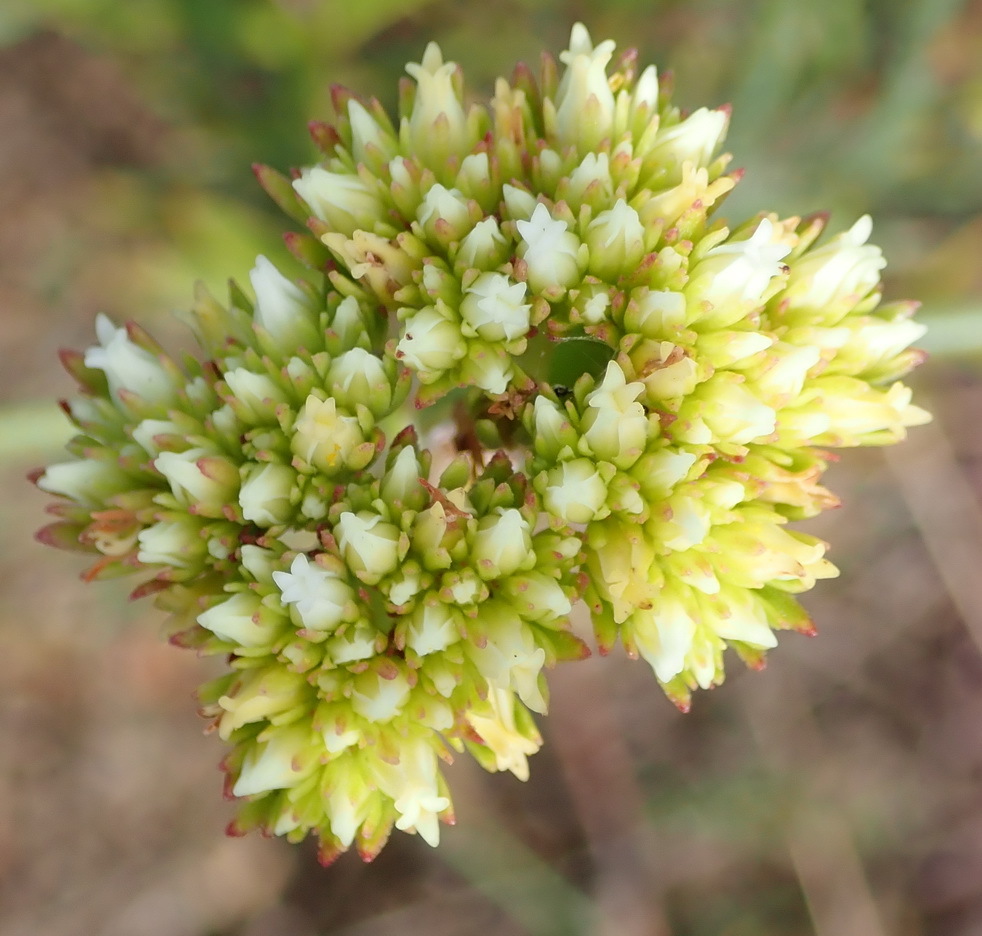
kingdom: Plantae
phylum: Tracheophyta
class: Magnoliopsida
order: Saxifragales
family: Crassulaceae
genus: Crassula
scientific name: Crassula subulata
